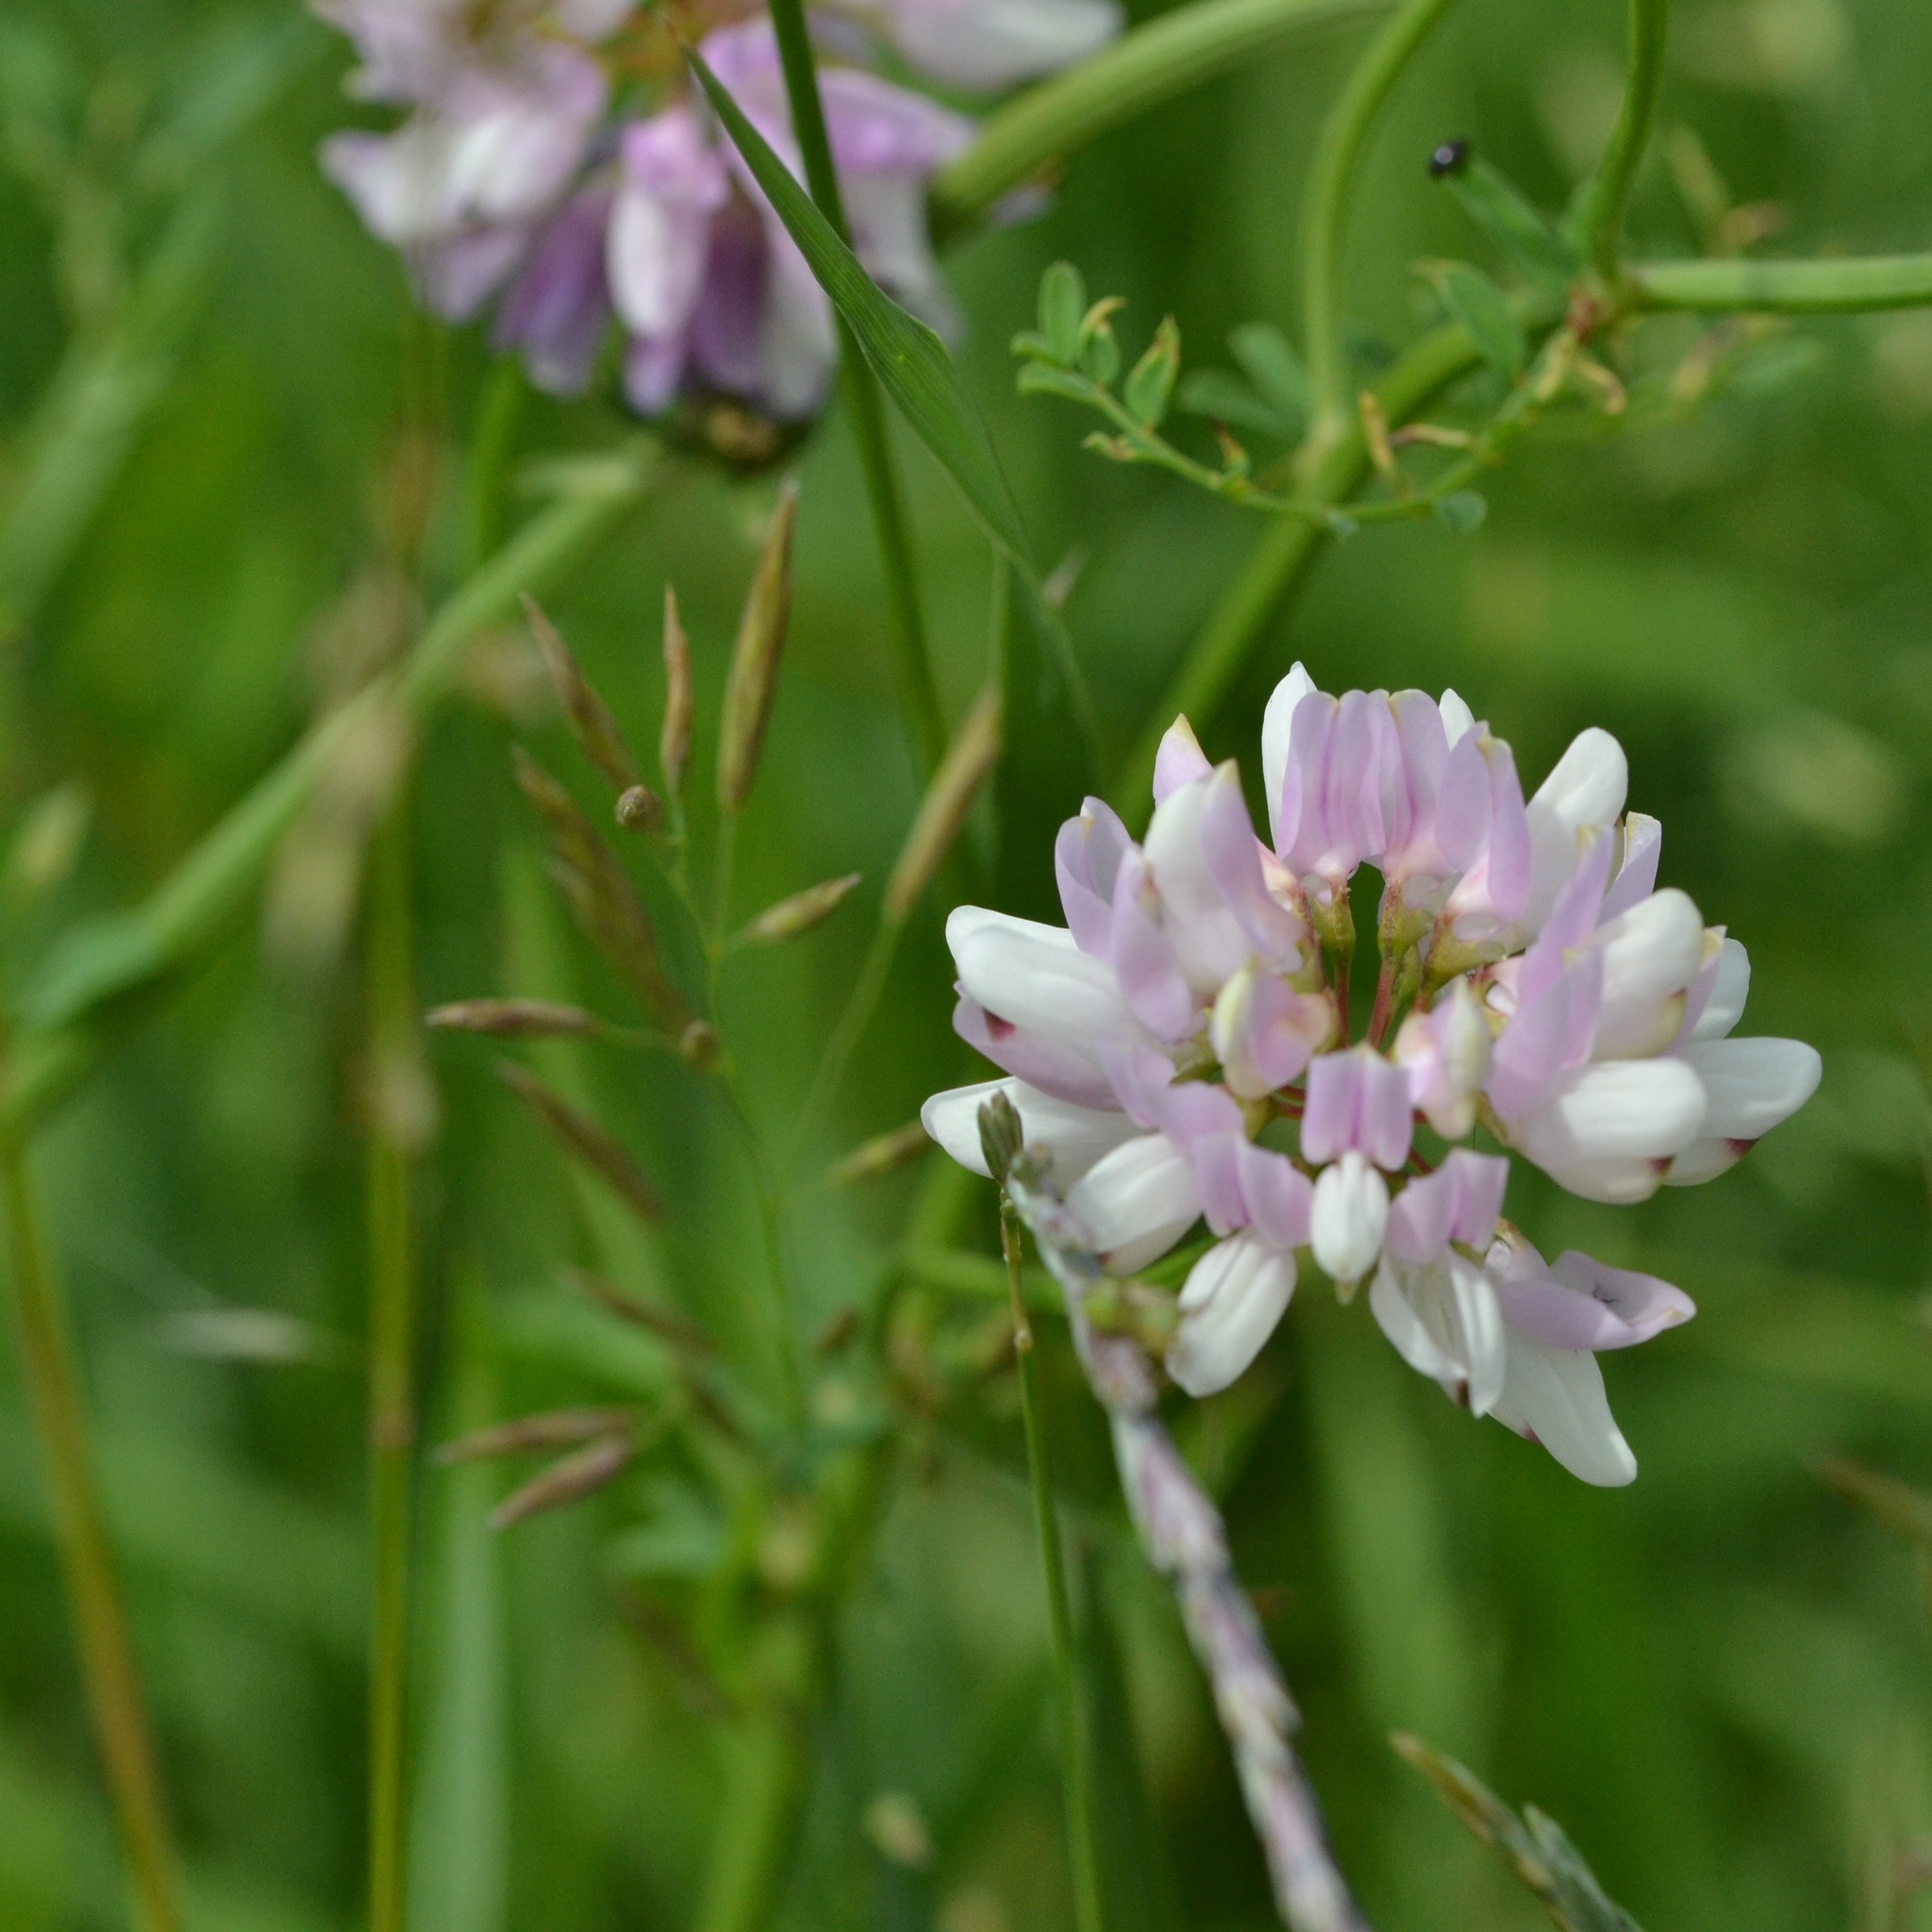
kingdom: Plantae
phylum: Tracheophyta
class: Magnoliopsida
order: Fabales
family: Fabaceae
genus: Coronilla
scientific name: Coronilla varia
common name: Crownvetch
